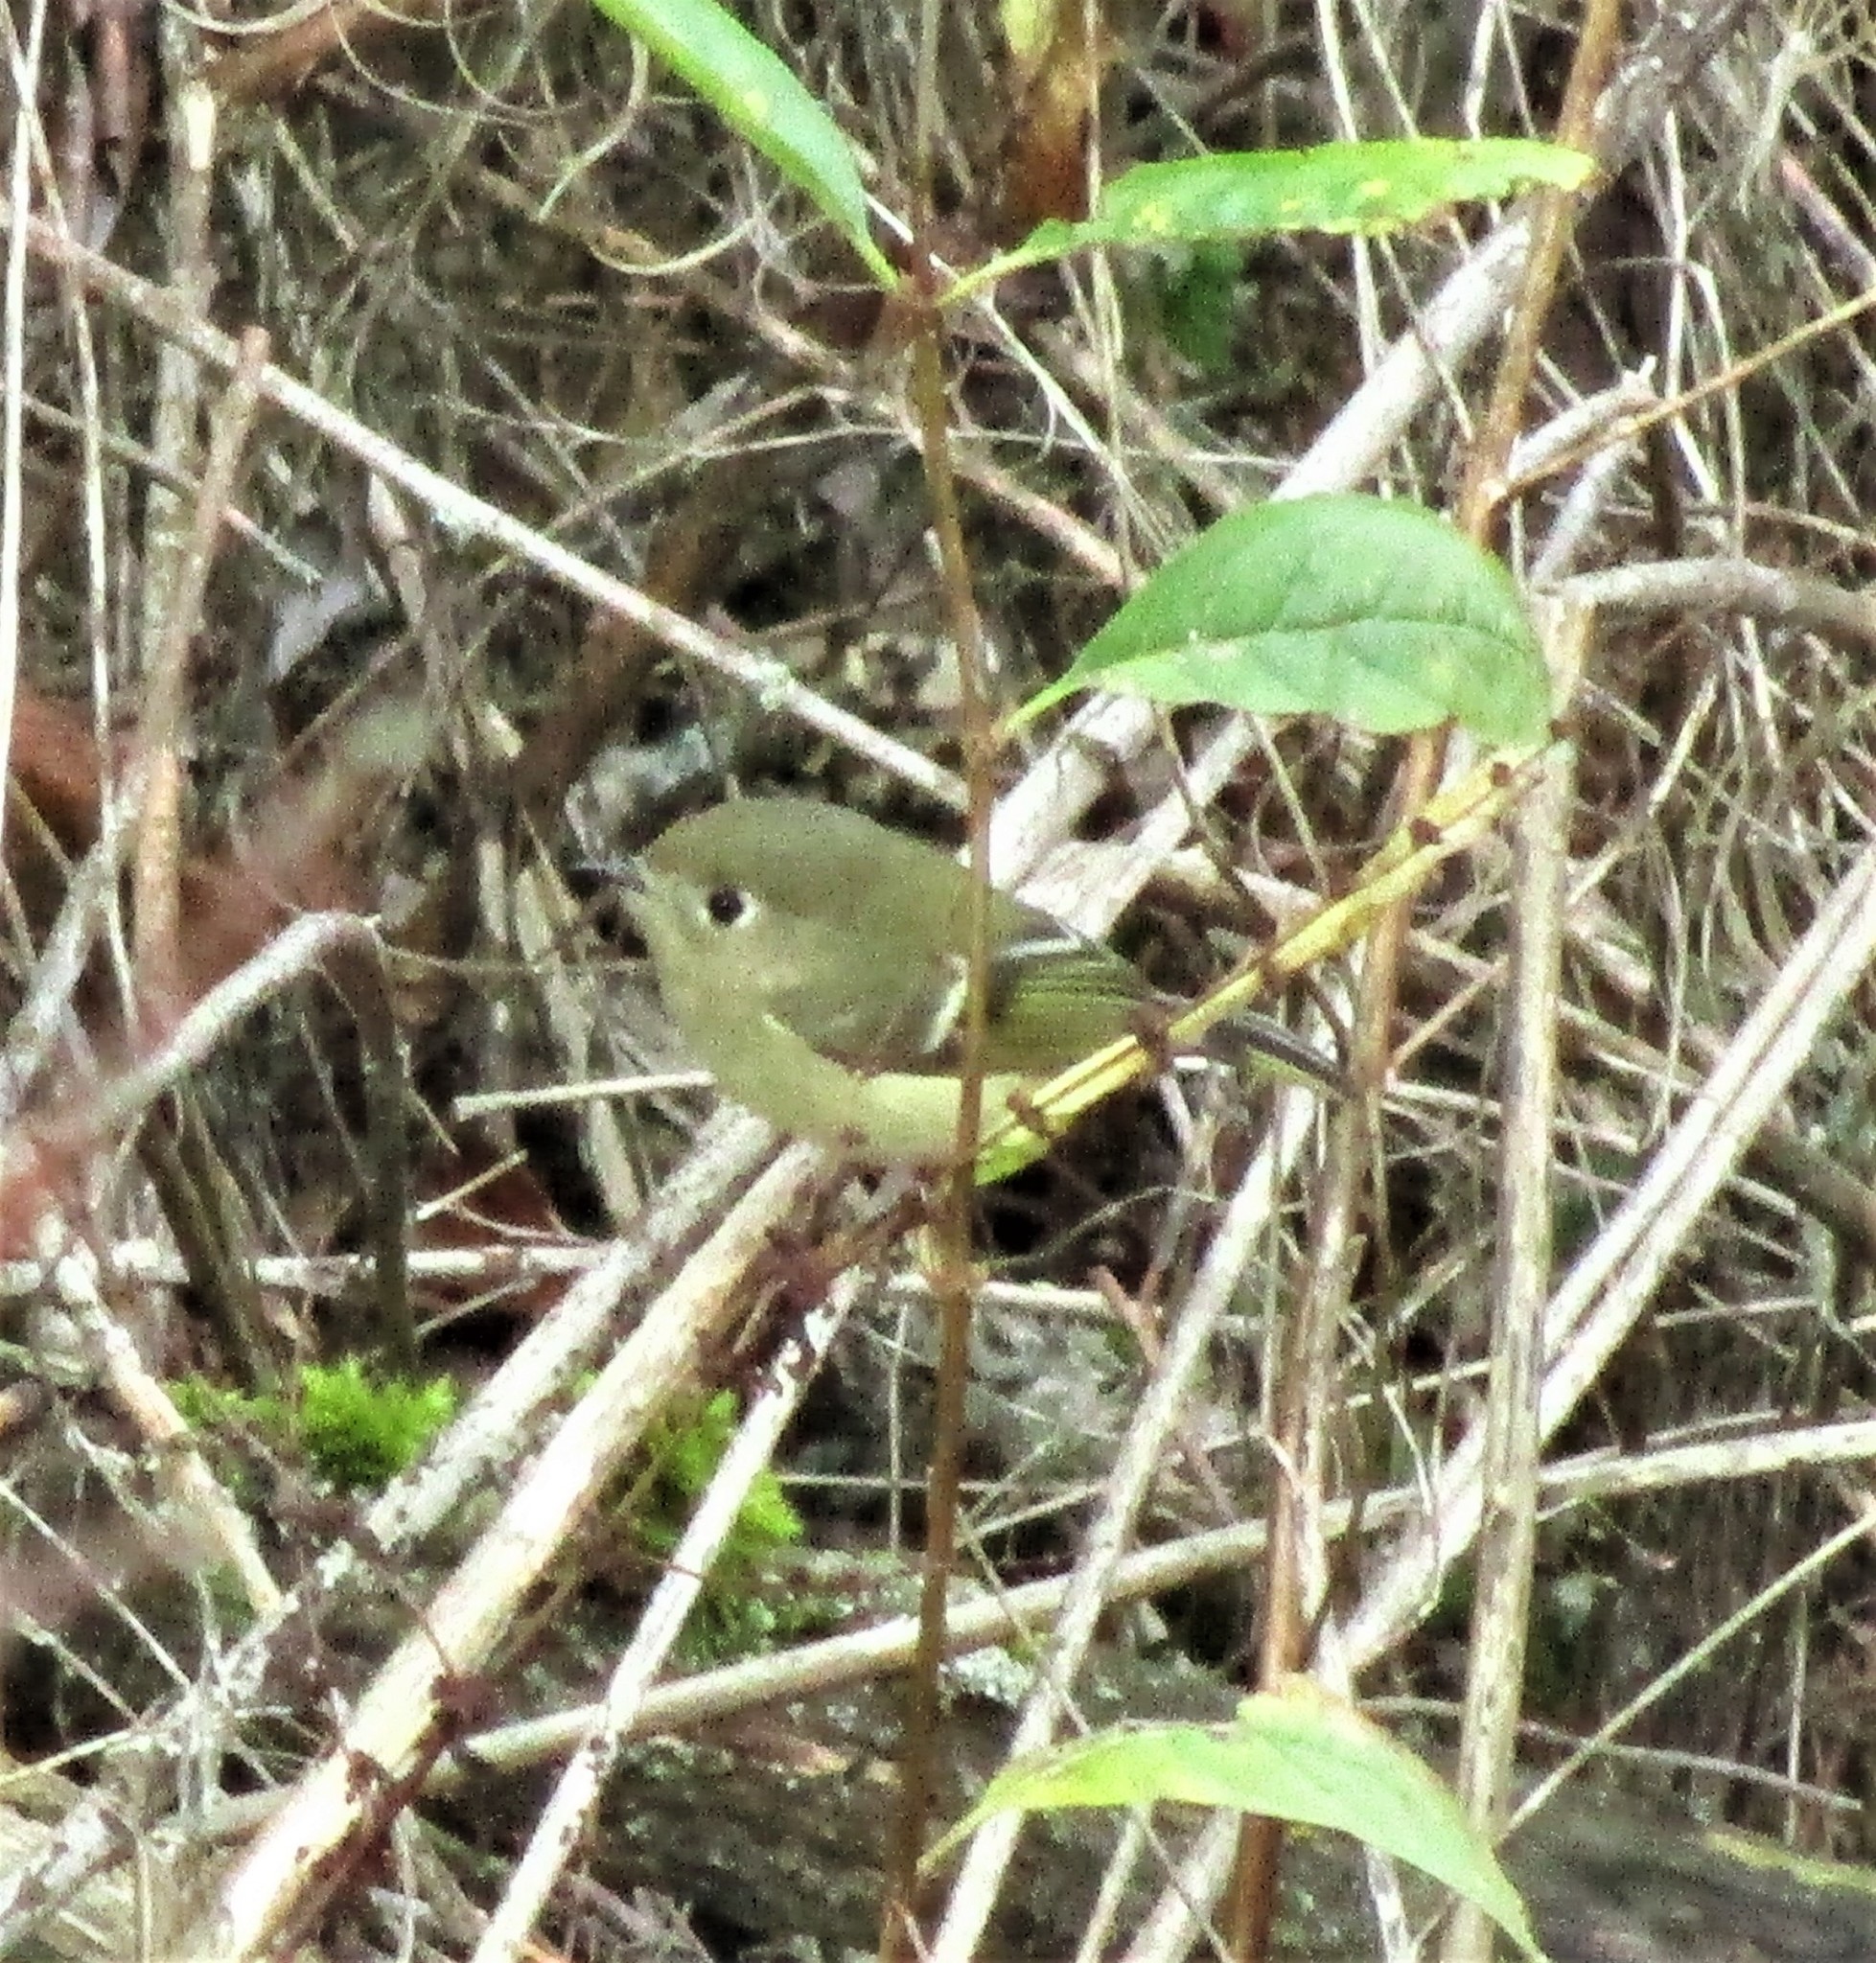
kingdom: Animalia
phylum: Chordata
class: Aves
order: Passeriformes
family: Regulidae
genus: Regulus
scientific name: Regulus calendula
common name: Ruby-crowned kinglet
